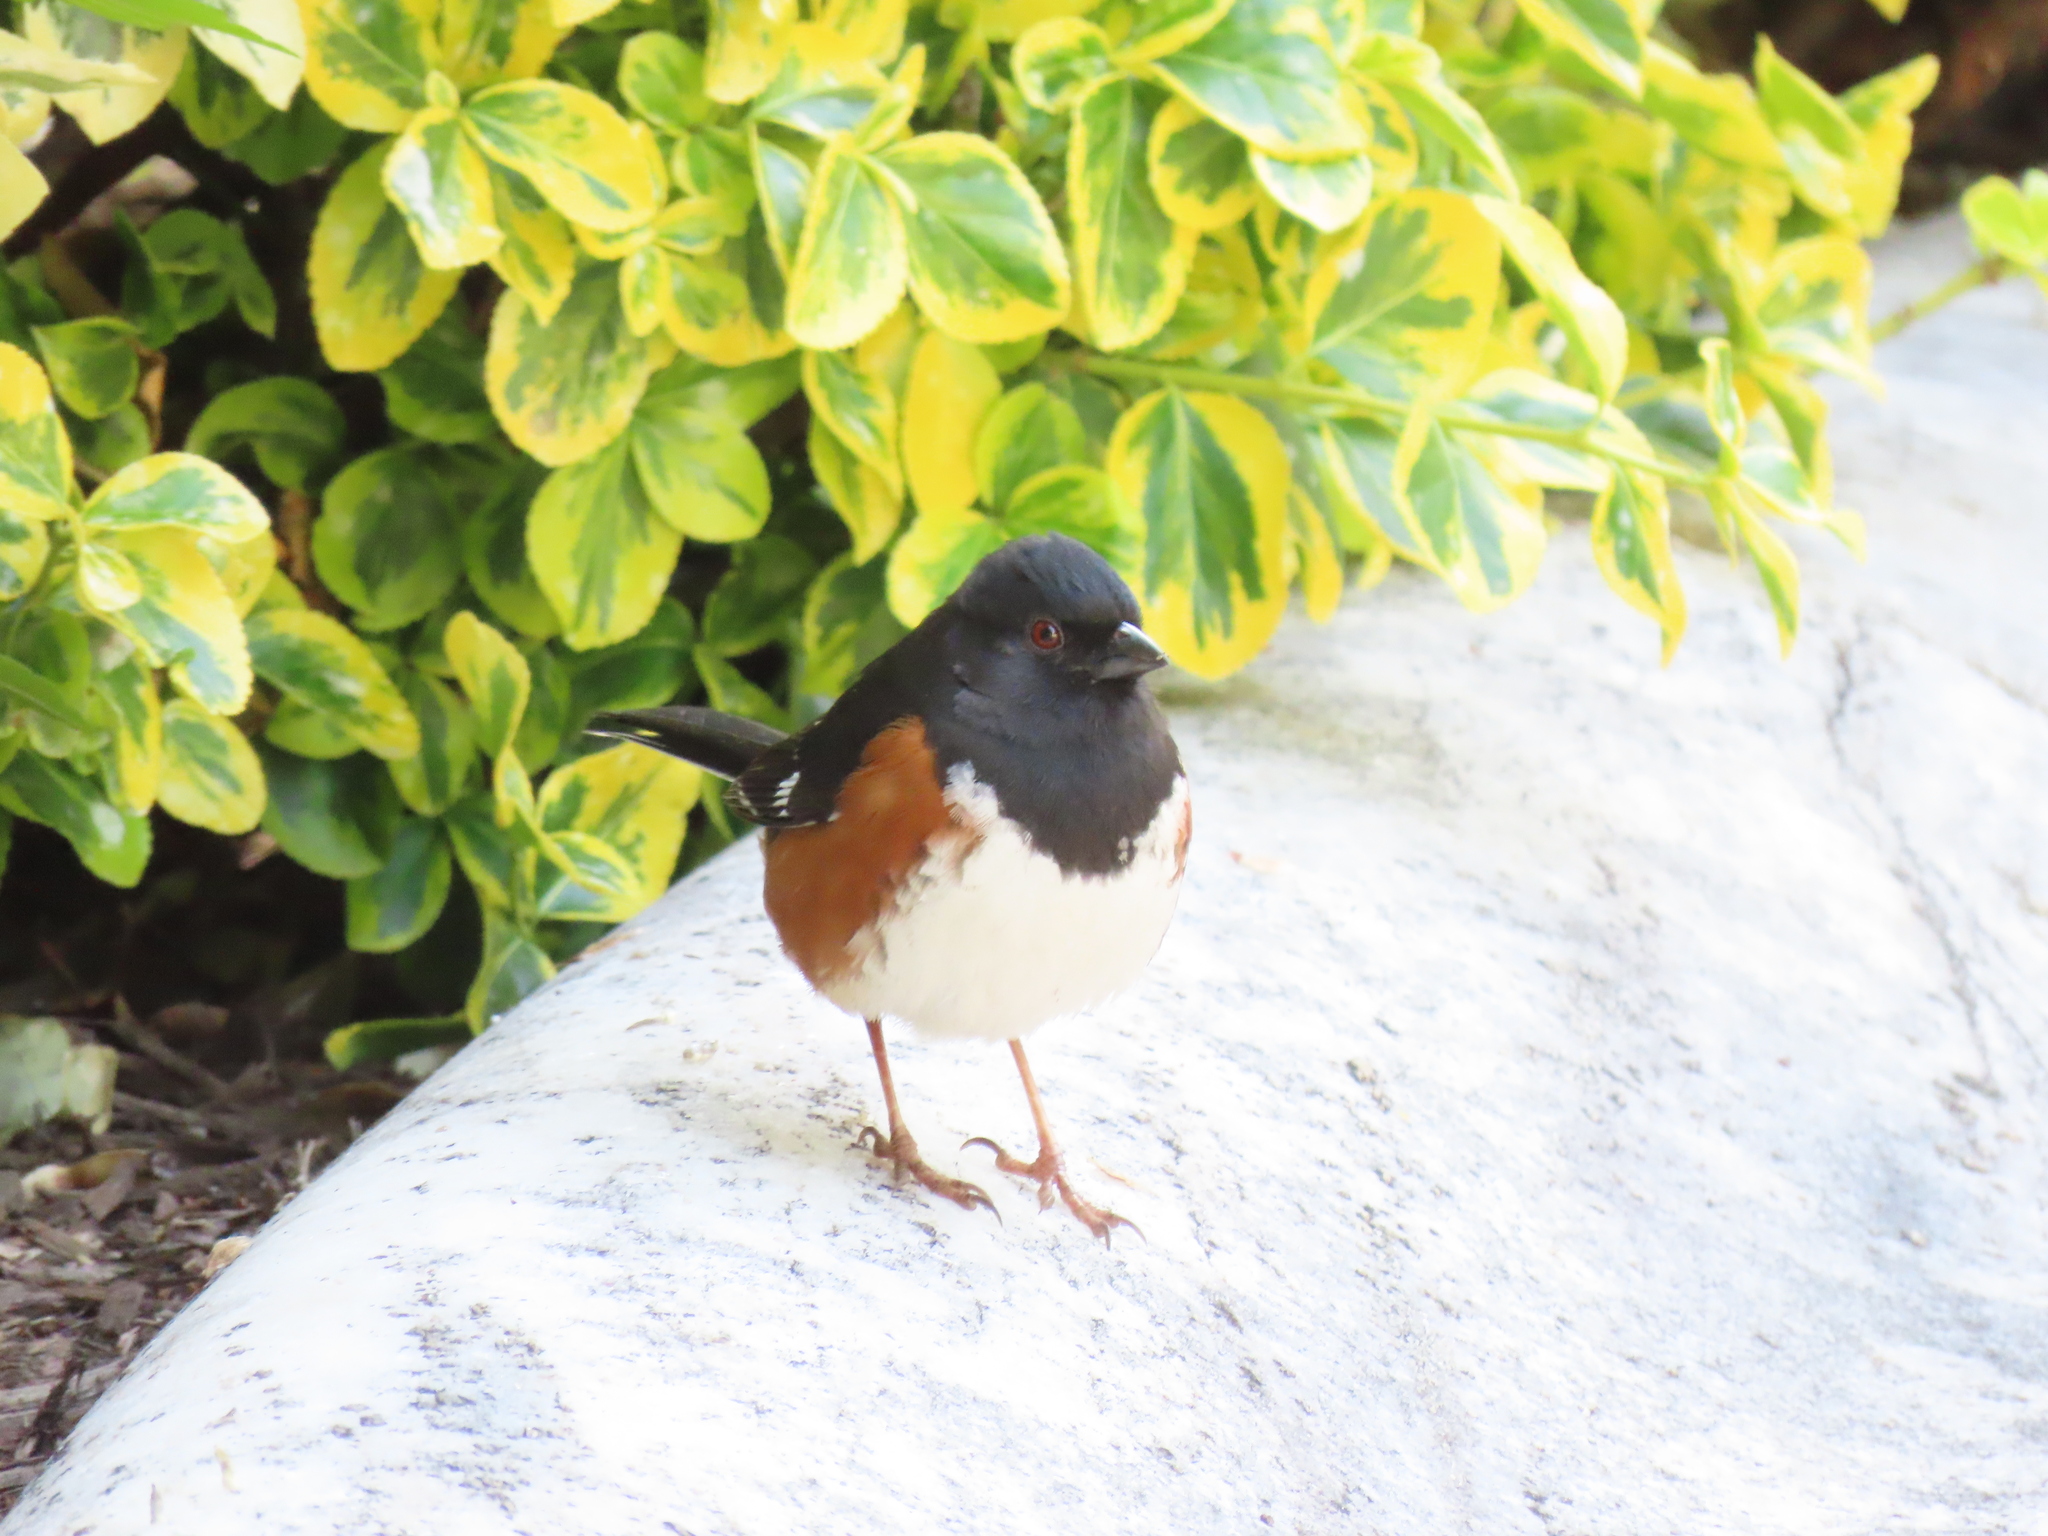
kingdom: Animalia
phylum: Chordata
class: Aves
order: Passeriformes
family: Passerellidae
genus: Pipilo
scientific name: Pipilo erythrophthalmus
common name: Eastern towhee
